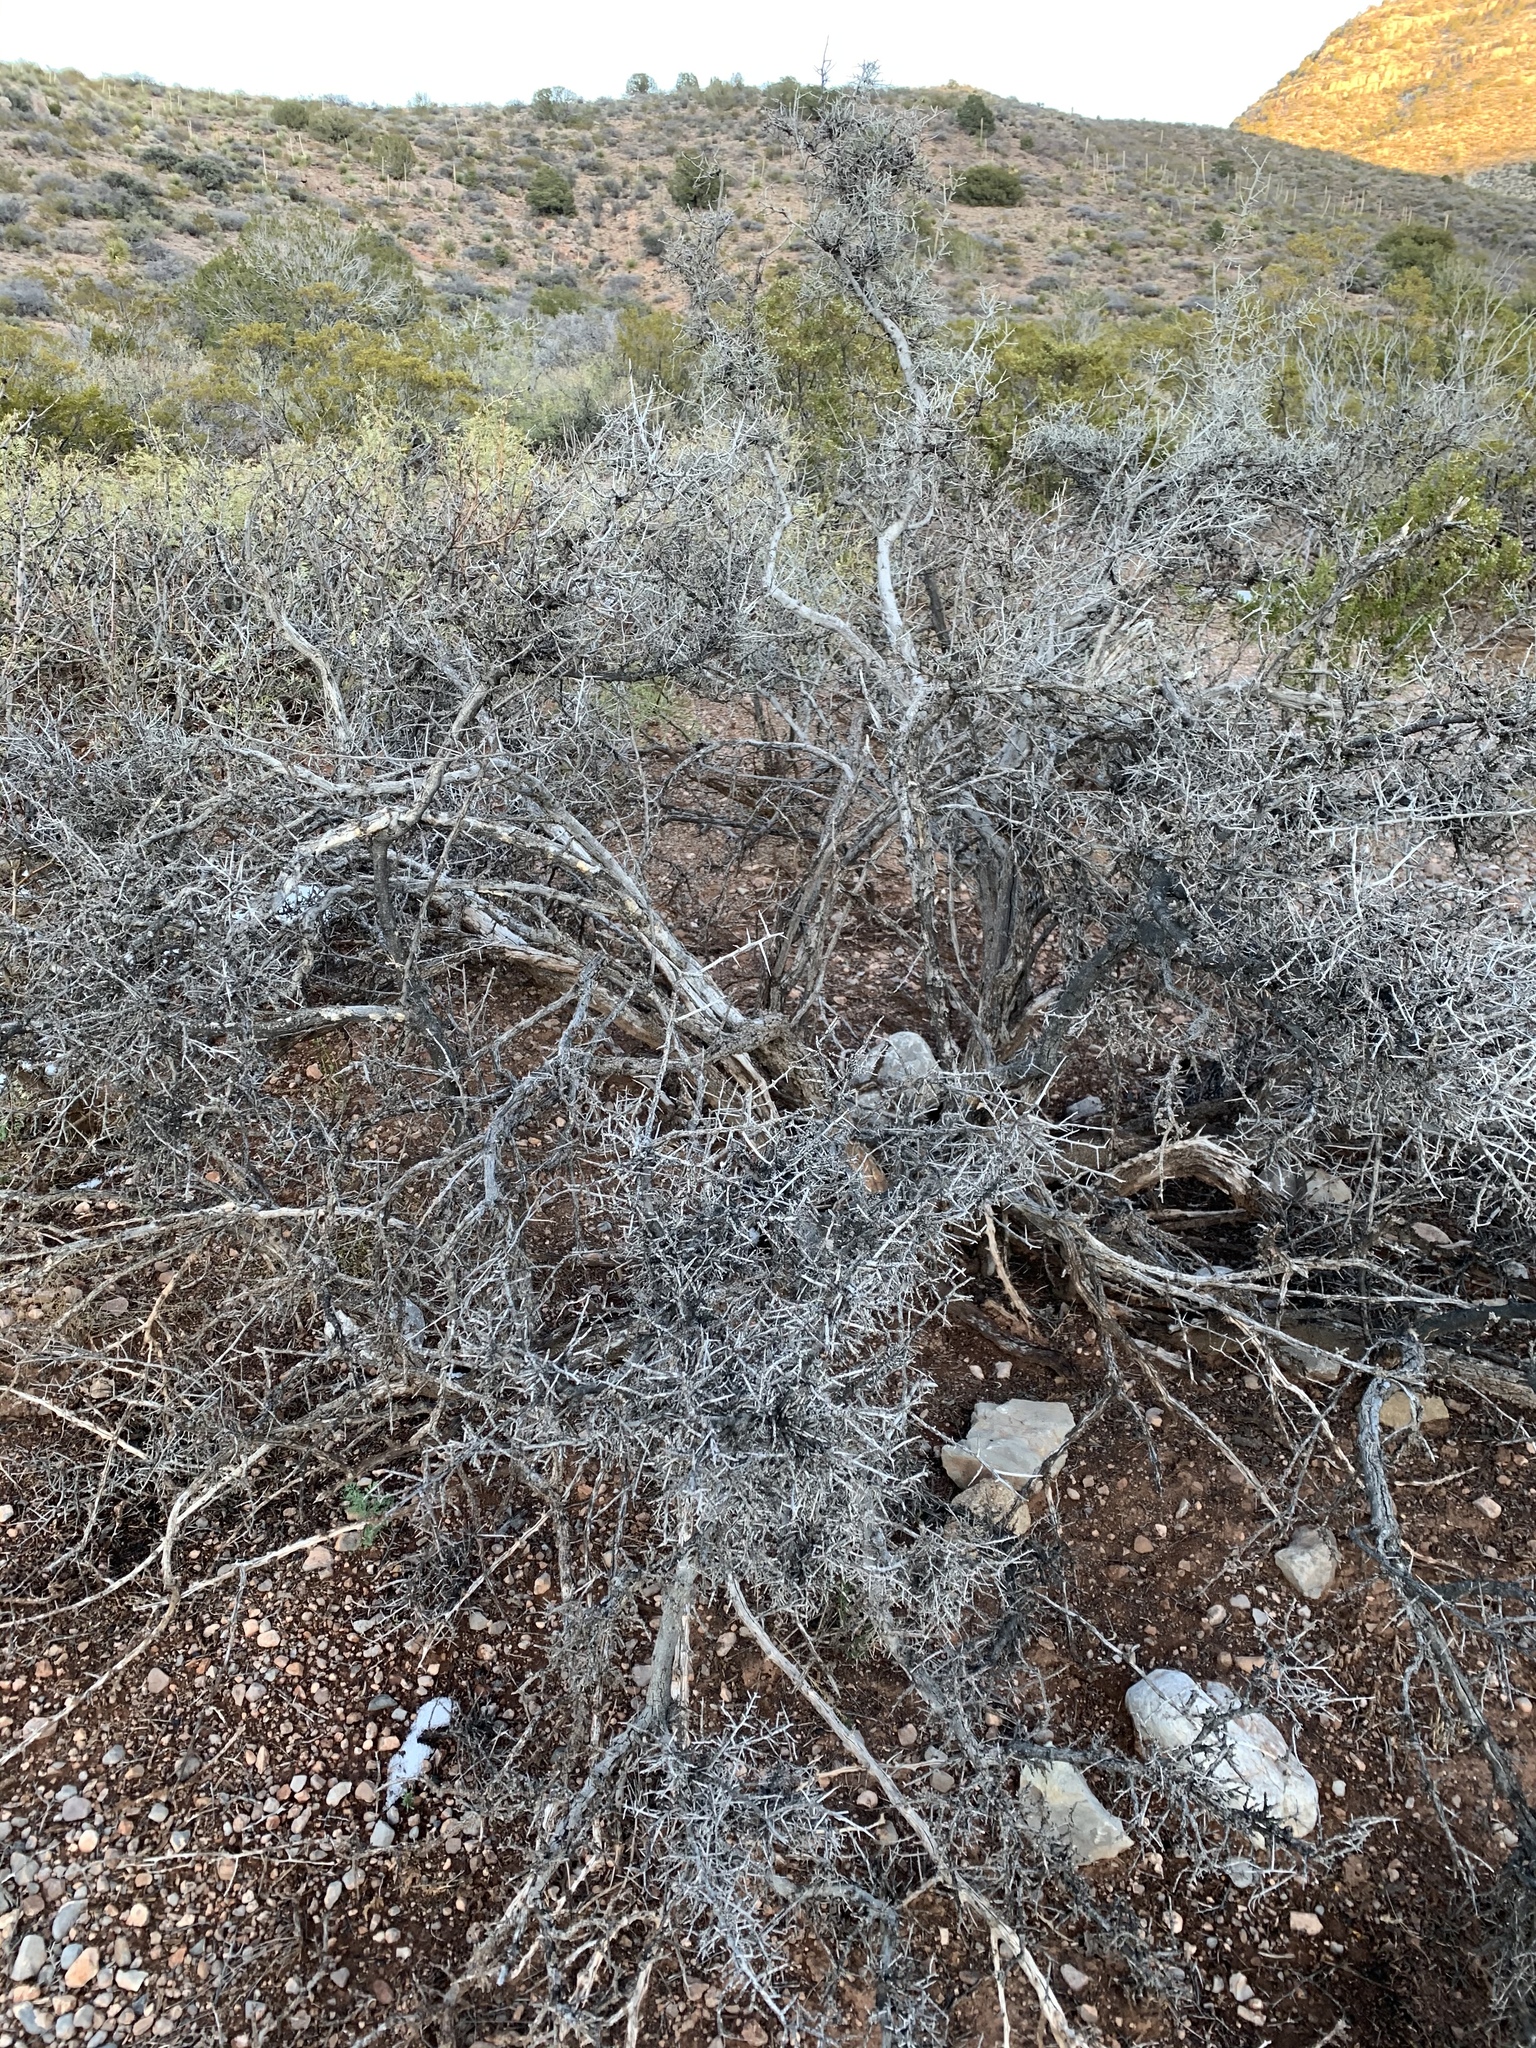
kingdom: Plantae
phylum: Tracheophyta
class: Magnoliopsida
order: Sapindales
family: Anacardiaceae
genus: Rhus
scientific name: Rhus microphylla
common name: Desert sumac
